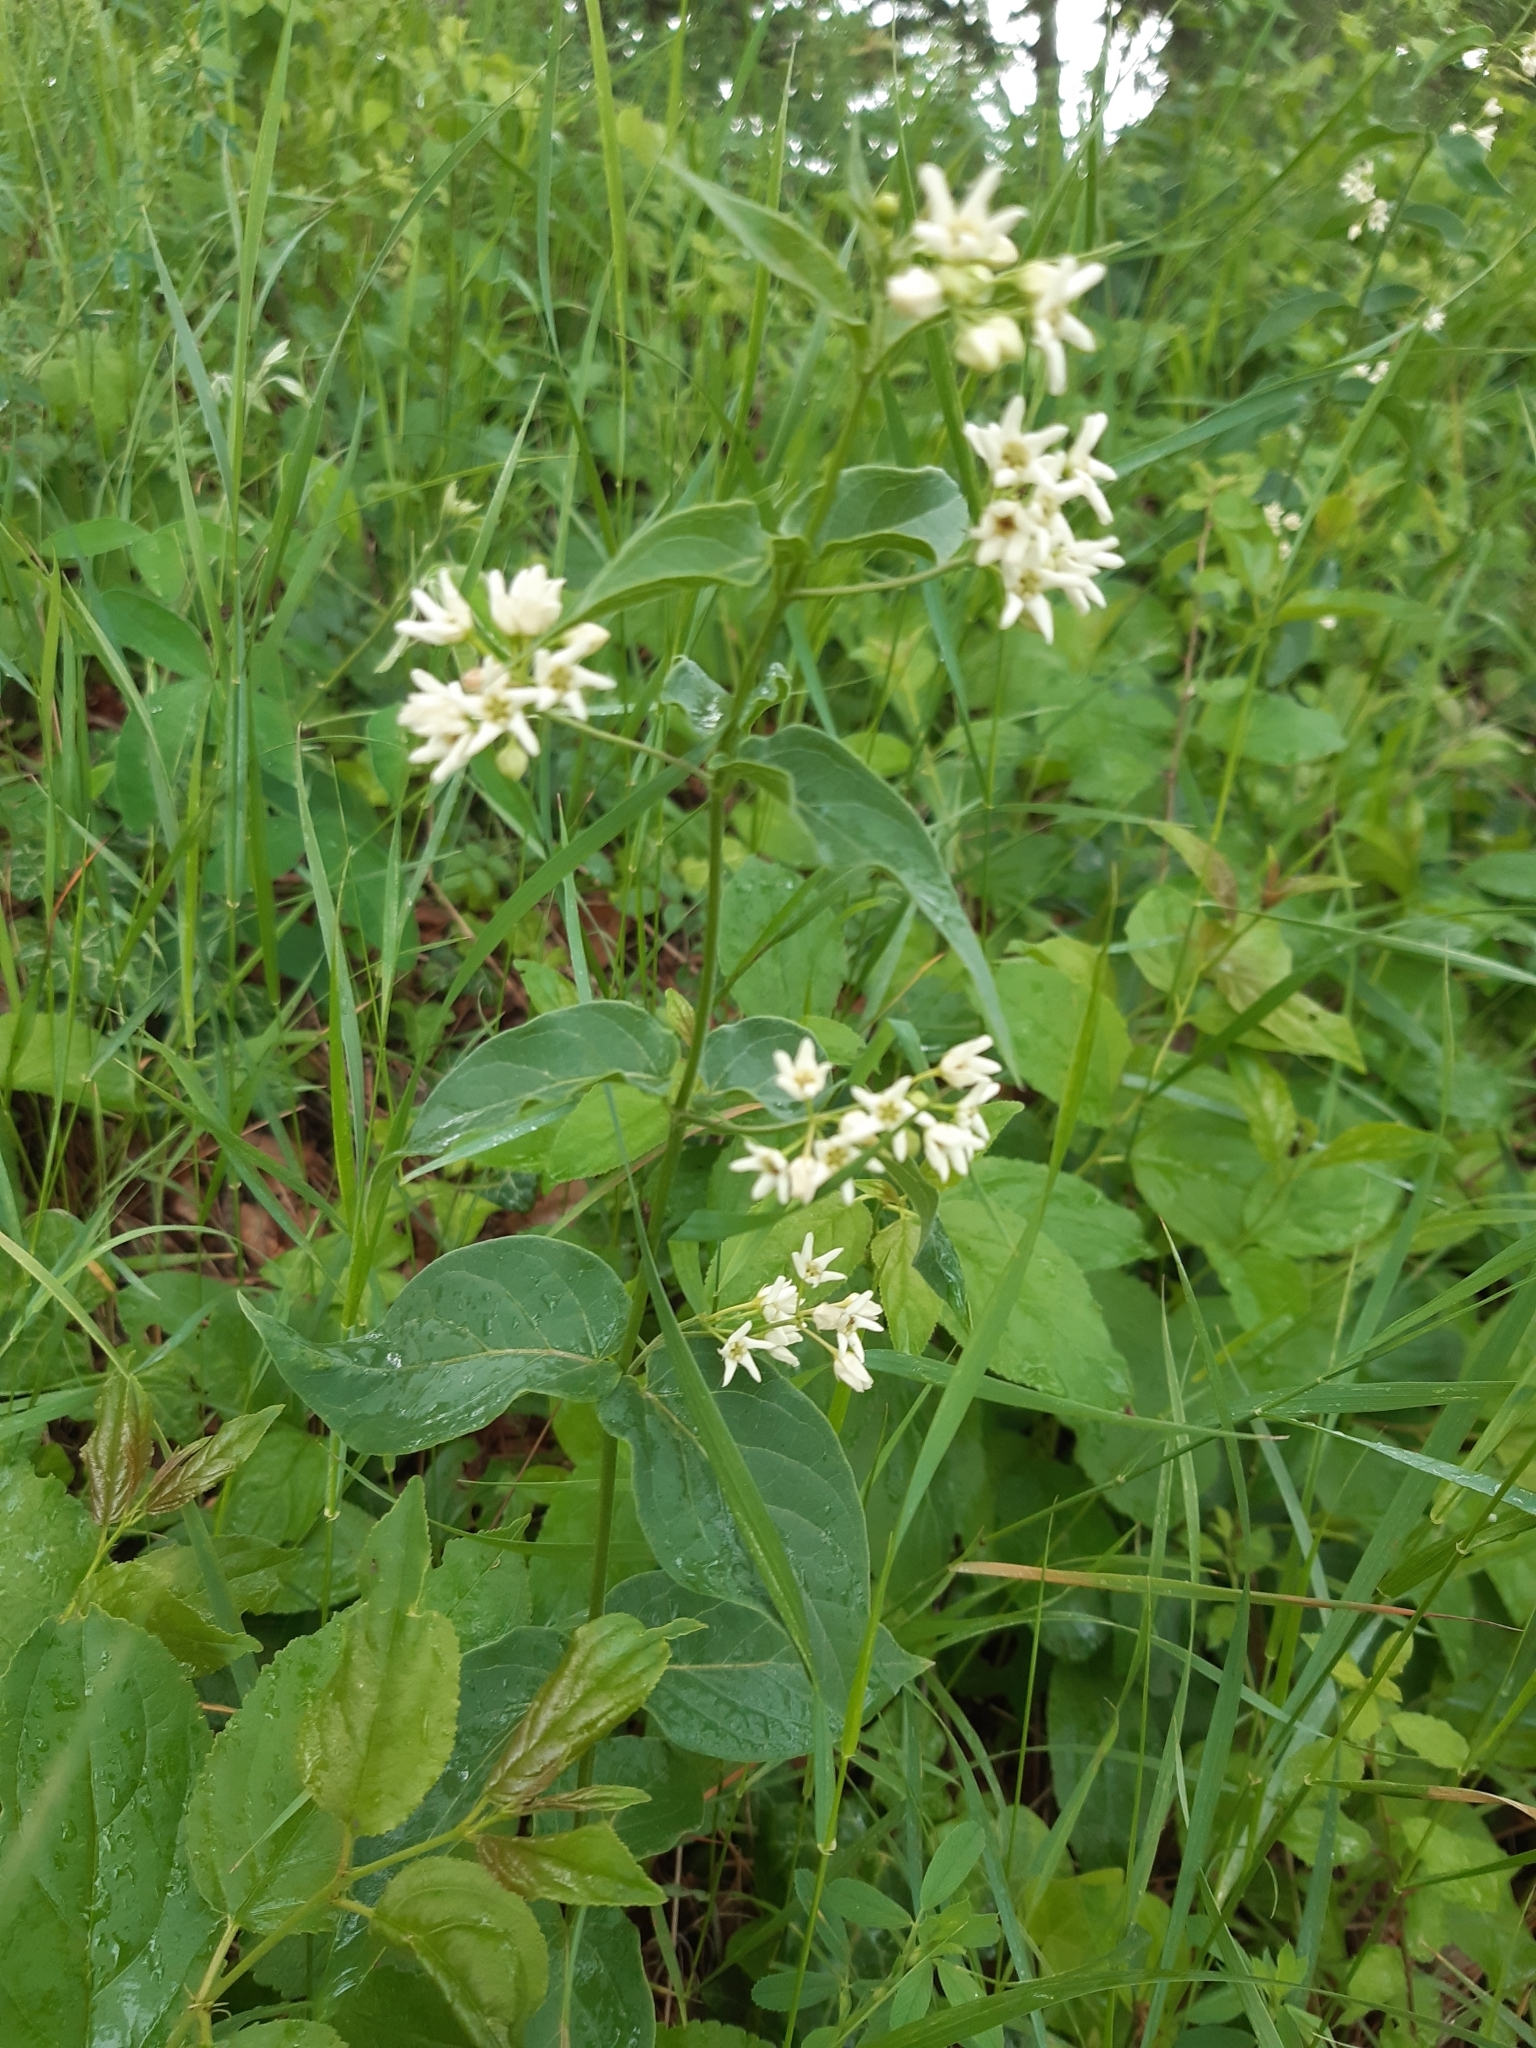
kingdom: Plantae
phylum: Tracheophyta
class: Magnoliopsida
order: Gentianales
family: Apocynaceae
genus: Vincetoxicum
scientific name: Vincetoxicum hirundinaria
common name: White swallowwort
